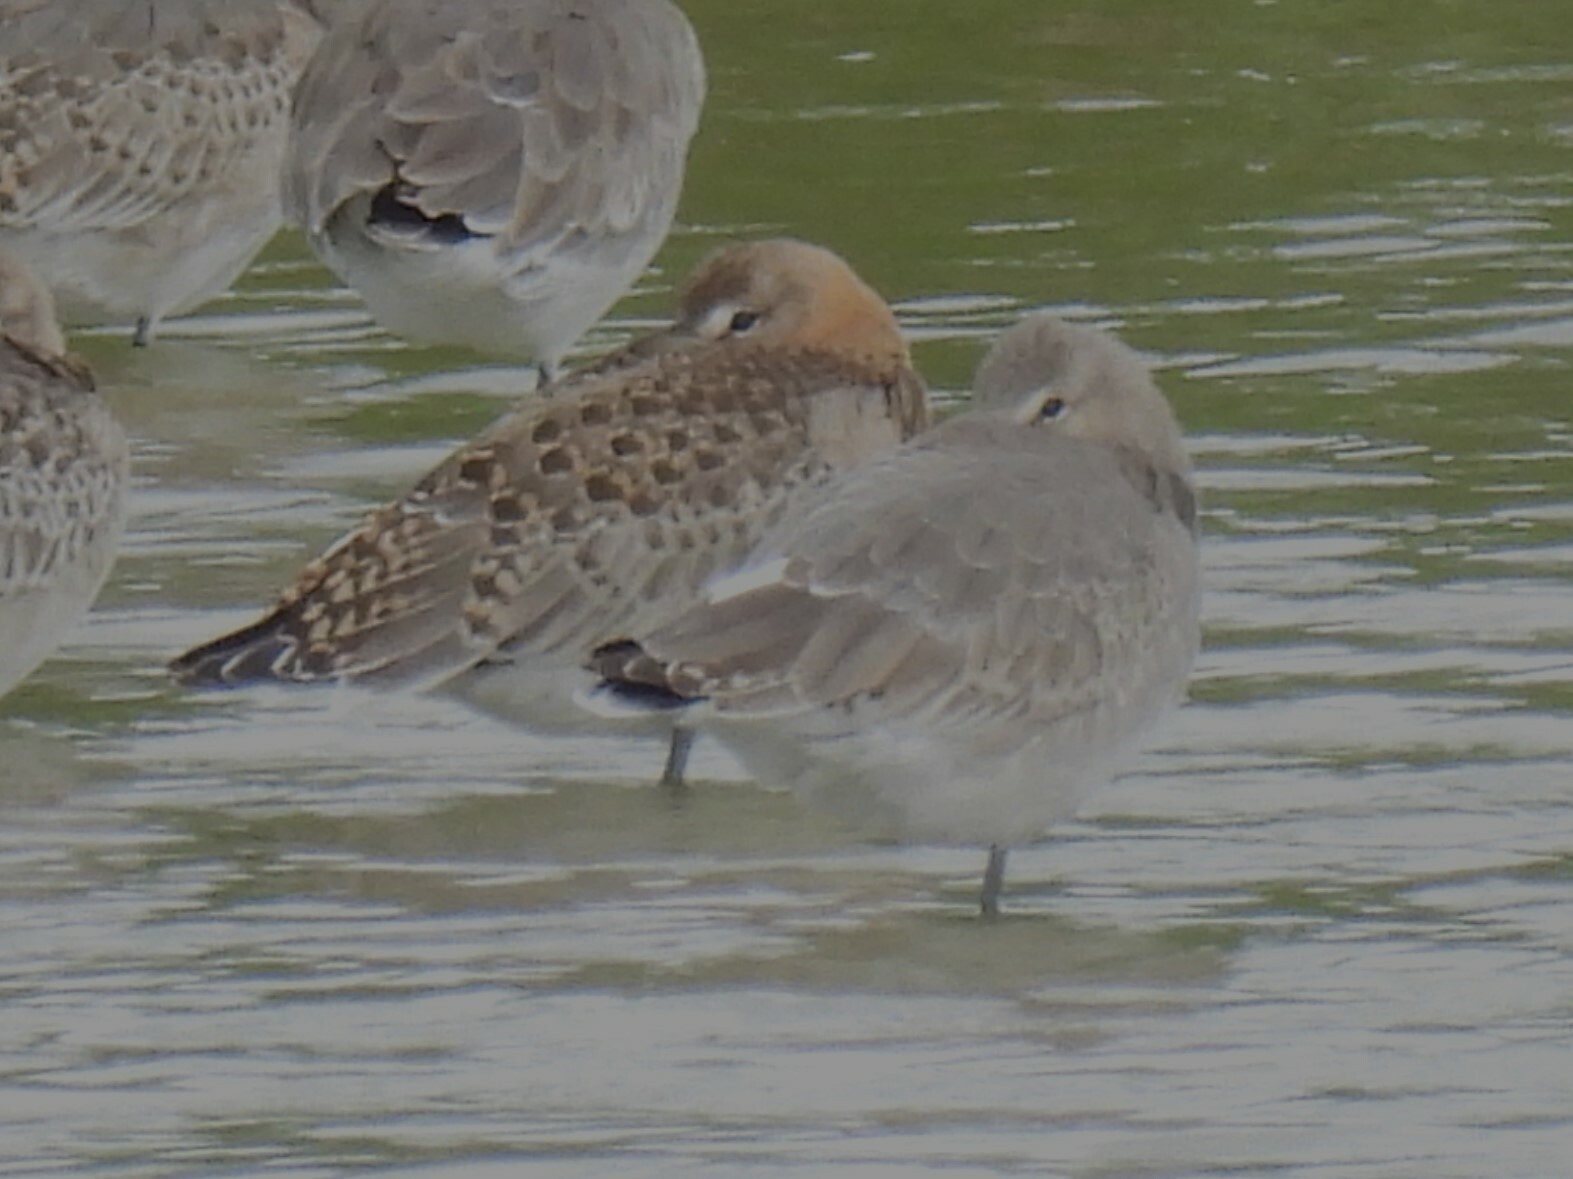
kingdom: Animalia
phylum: Chordata
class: Aves
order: Charadriiformes
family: Scolopacidae
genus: Limosa
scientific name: Limosa limosa
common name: Black-tailed godwit
